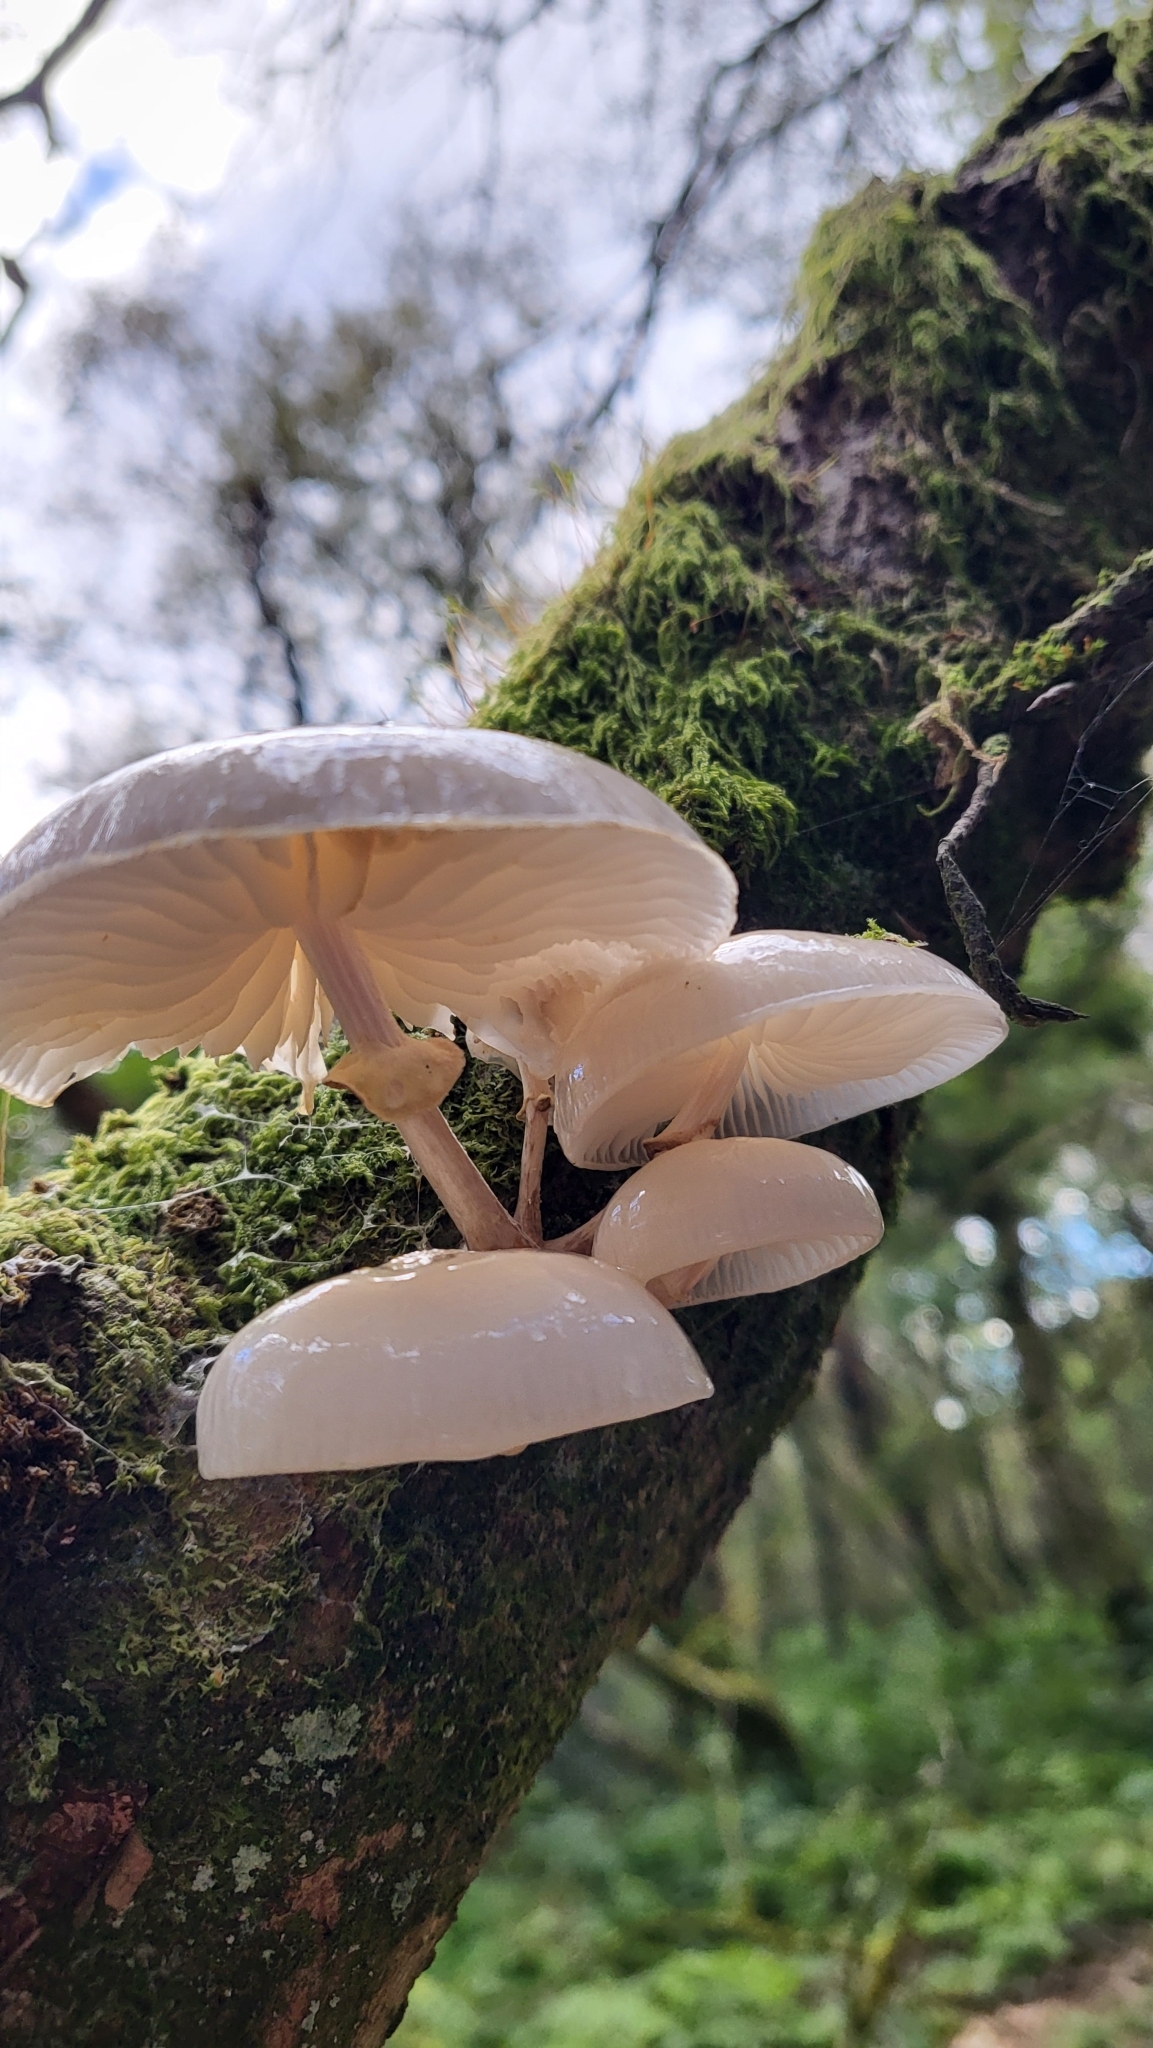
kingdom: Fungi
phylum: Basidiomycota
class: Agaricomycetes
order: Agaricales
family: Physalacriaceae
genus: Mucidula
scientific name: Mucidula mucida
